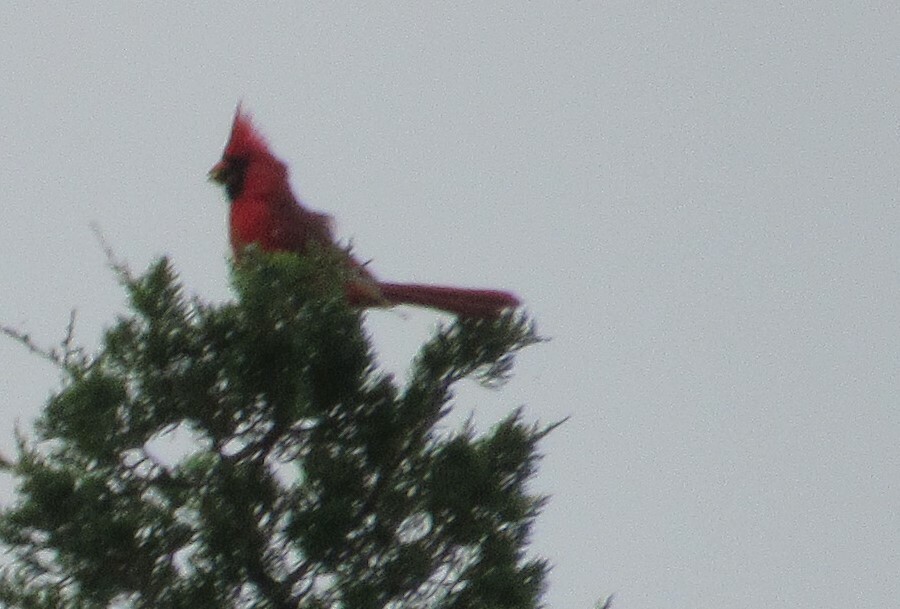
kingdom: Animalia
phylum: Chordata
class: Aves
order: Passeriformes
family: Cardinalidae
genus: Cardinalis
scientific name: Cardinalis cardinalis
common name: Northern cardinal
